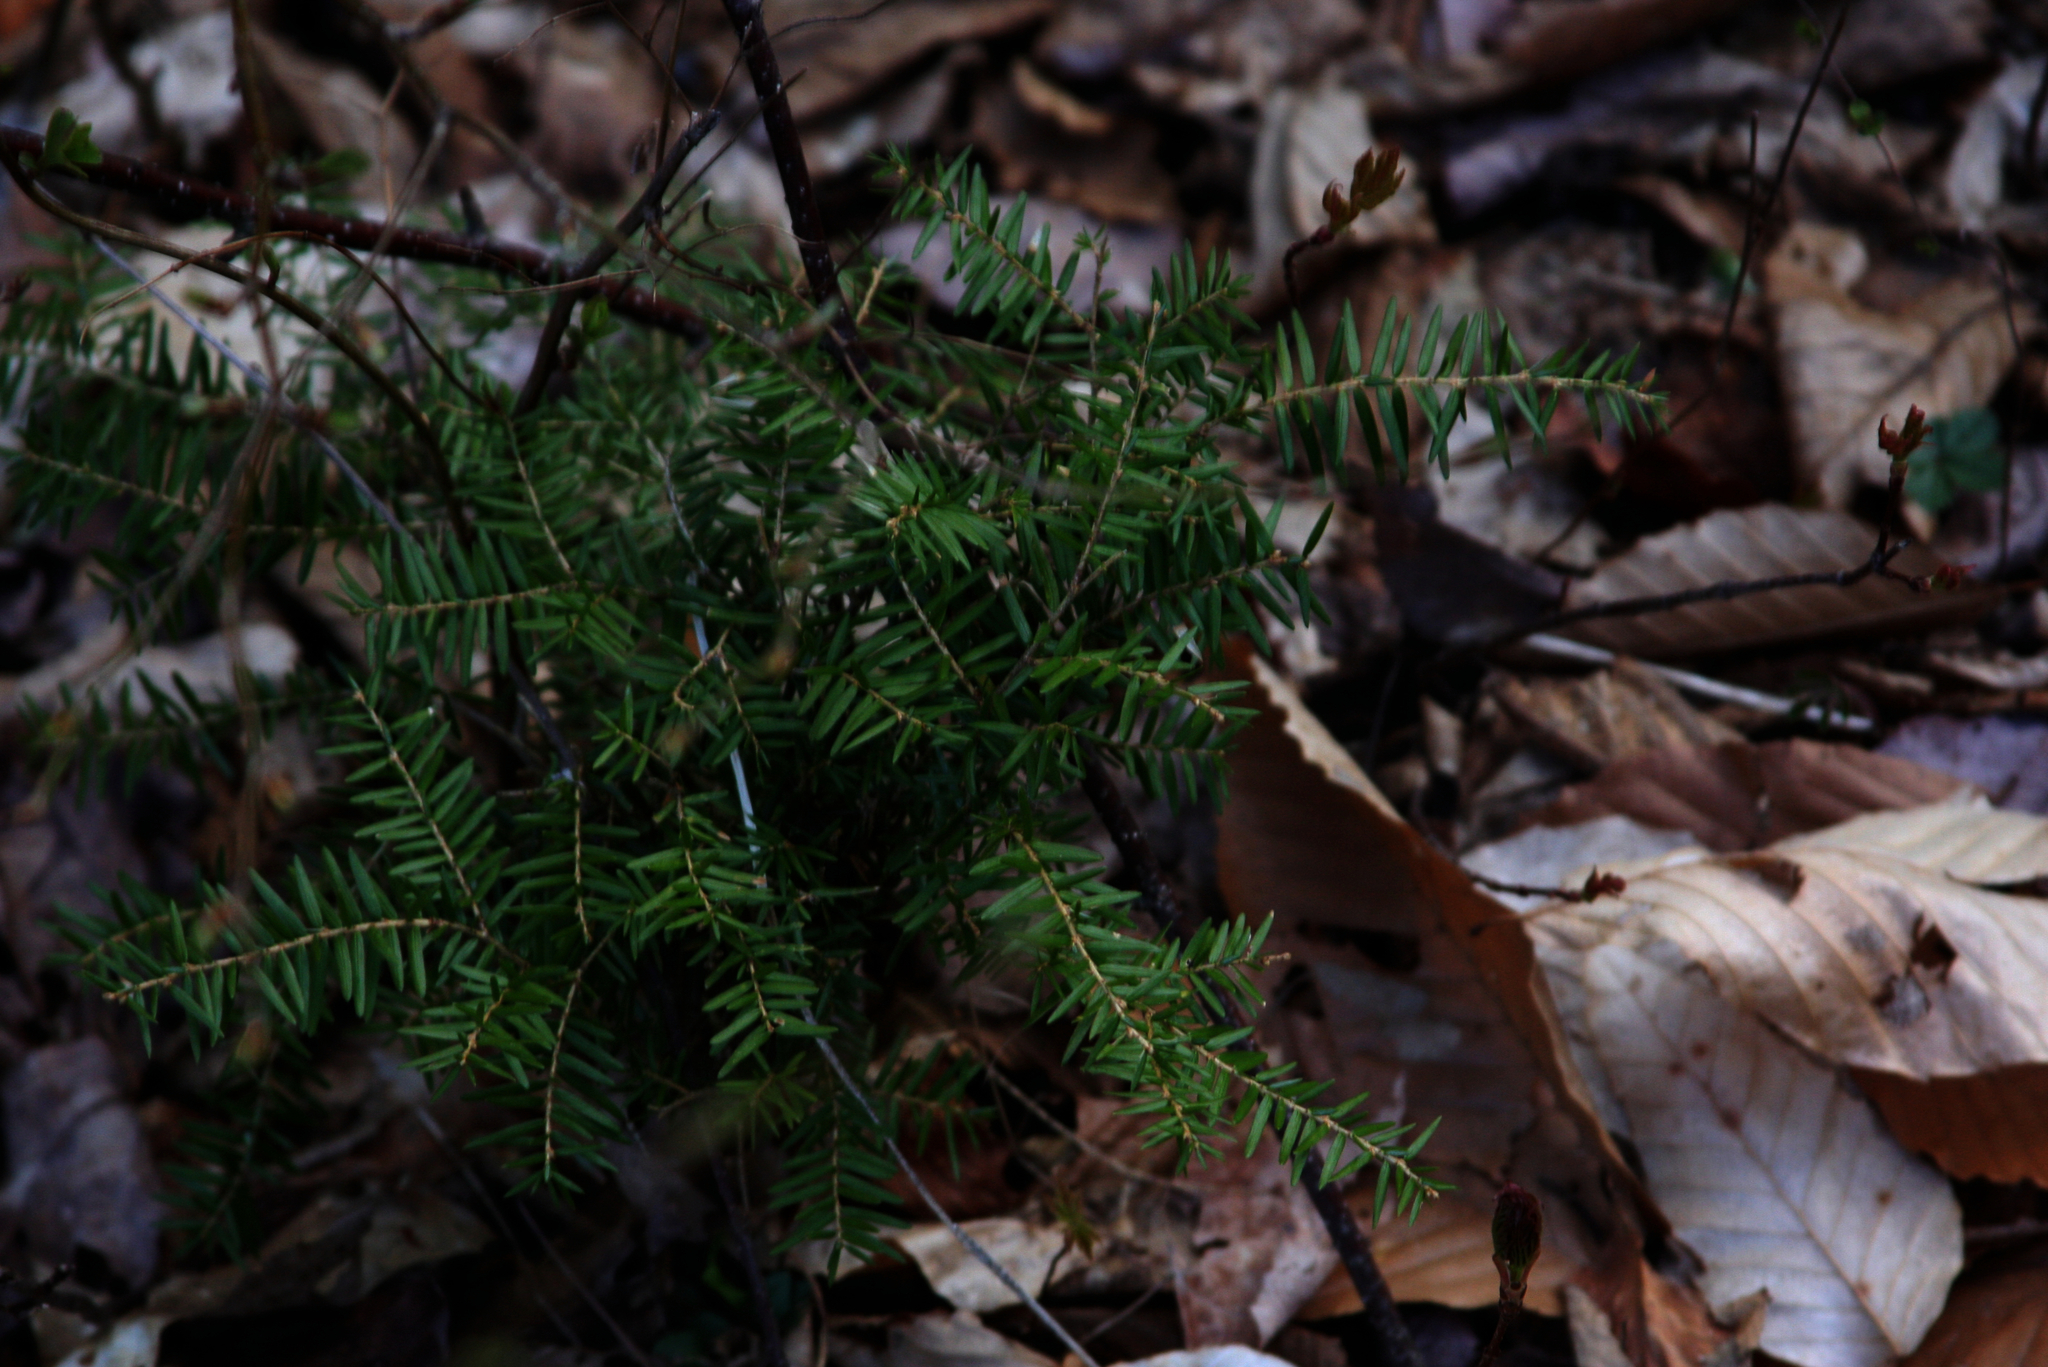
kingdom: Plantae
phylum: Tracheophyta
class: Pinopsida
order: Pinales
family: Pinaceae
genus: Tsuga
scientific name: Tsuga canadensis
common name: Eastern hemlock
